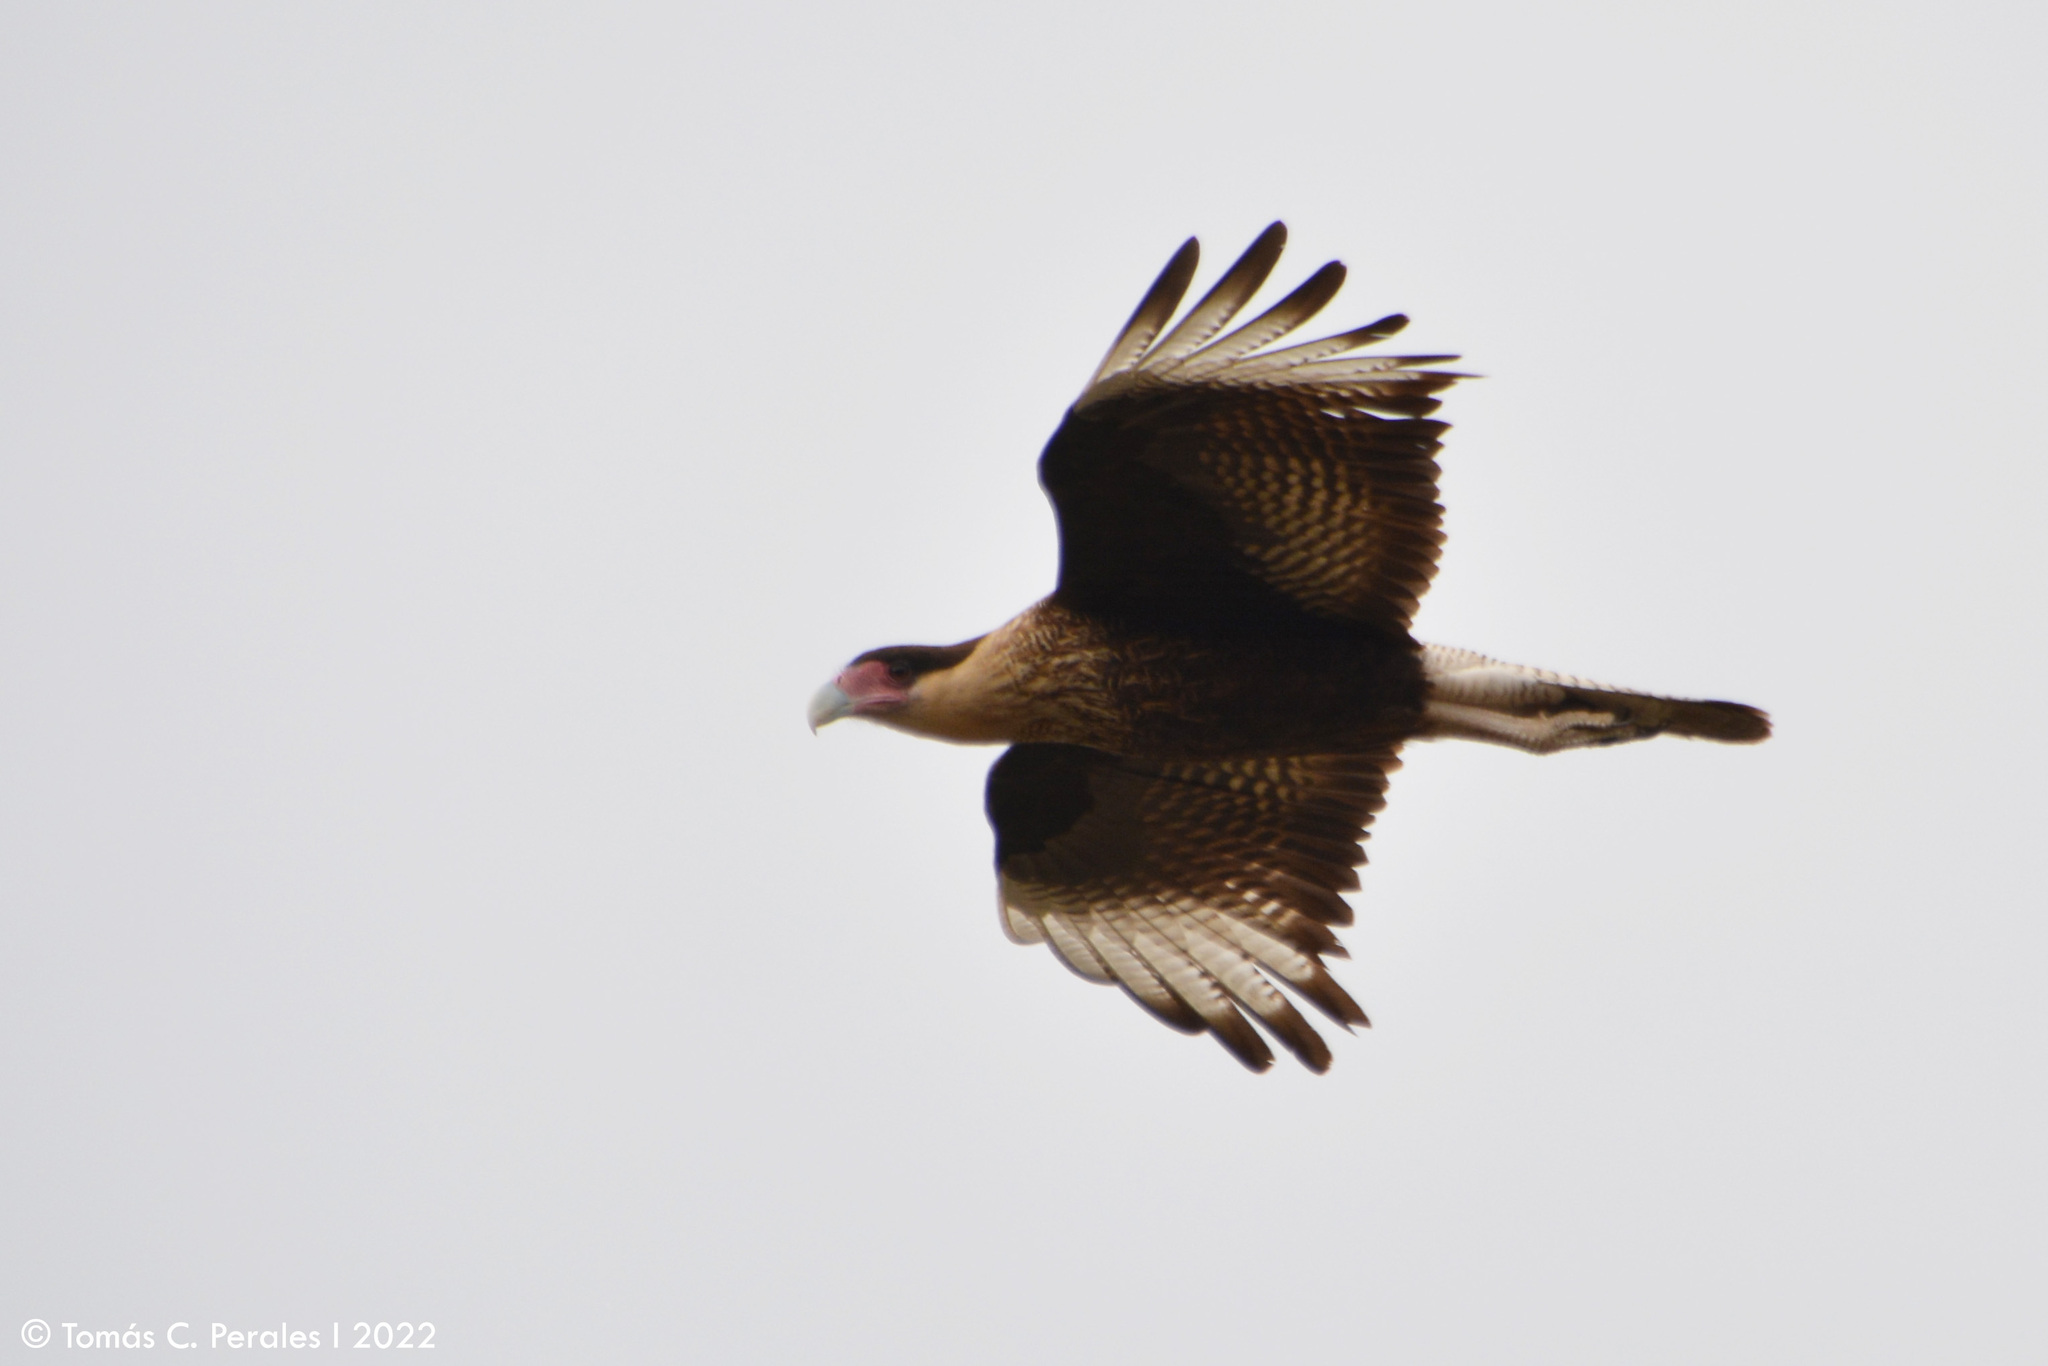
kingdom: Animalia
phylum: Chordata
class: Aves
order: Falconiformes
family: Falconidae
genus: Caracara
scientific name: Caracara plancus
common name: Southern caracara
